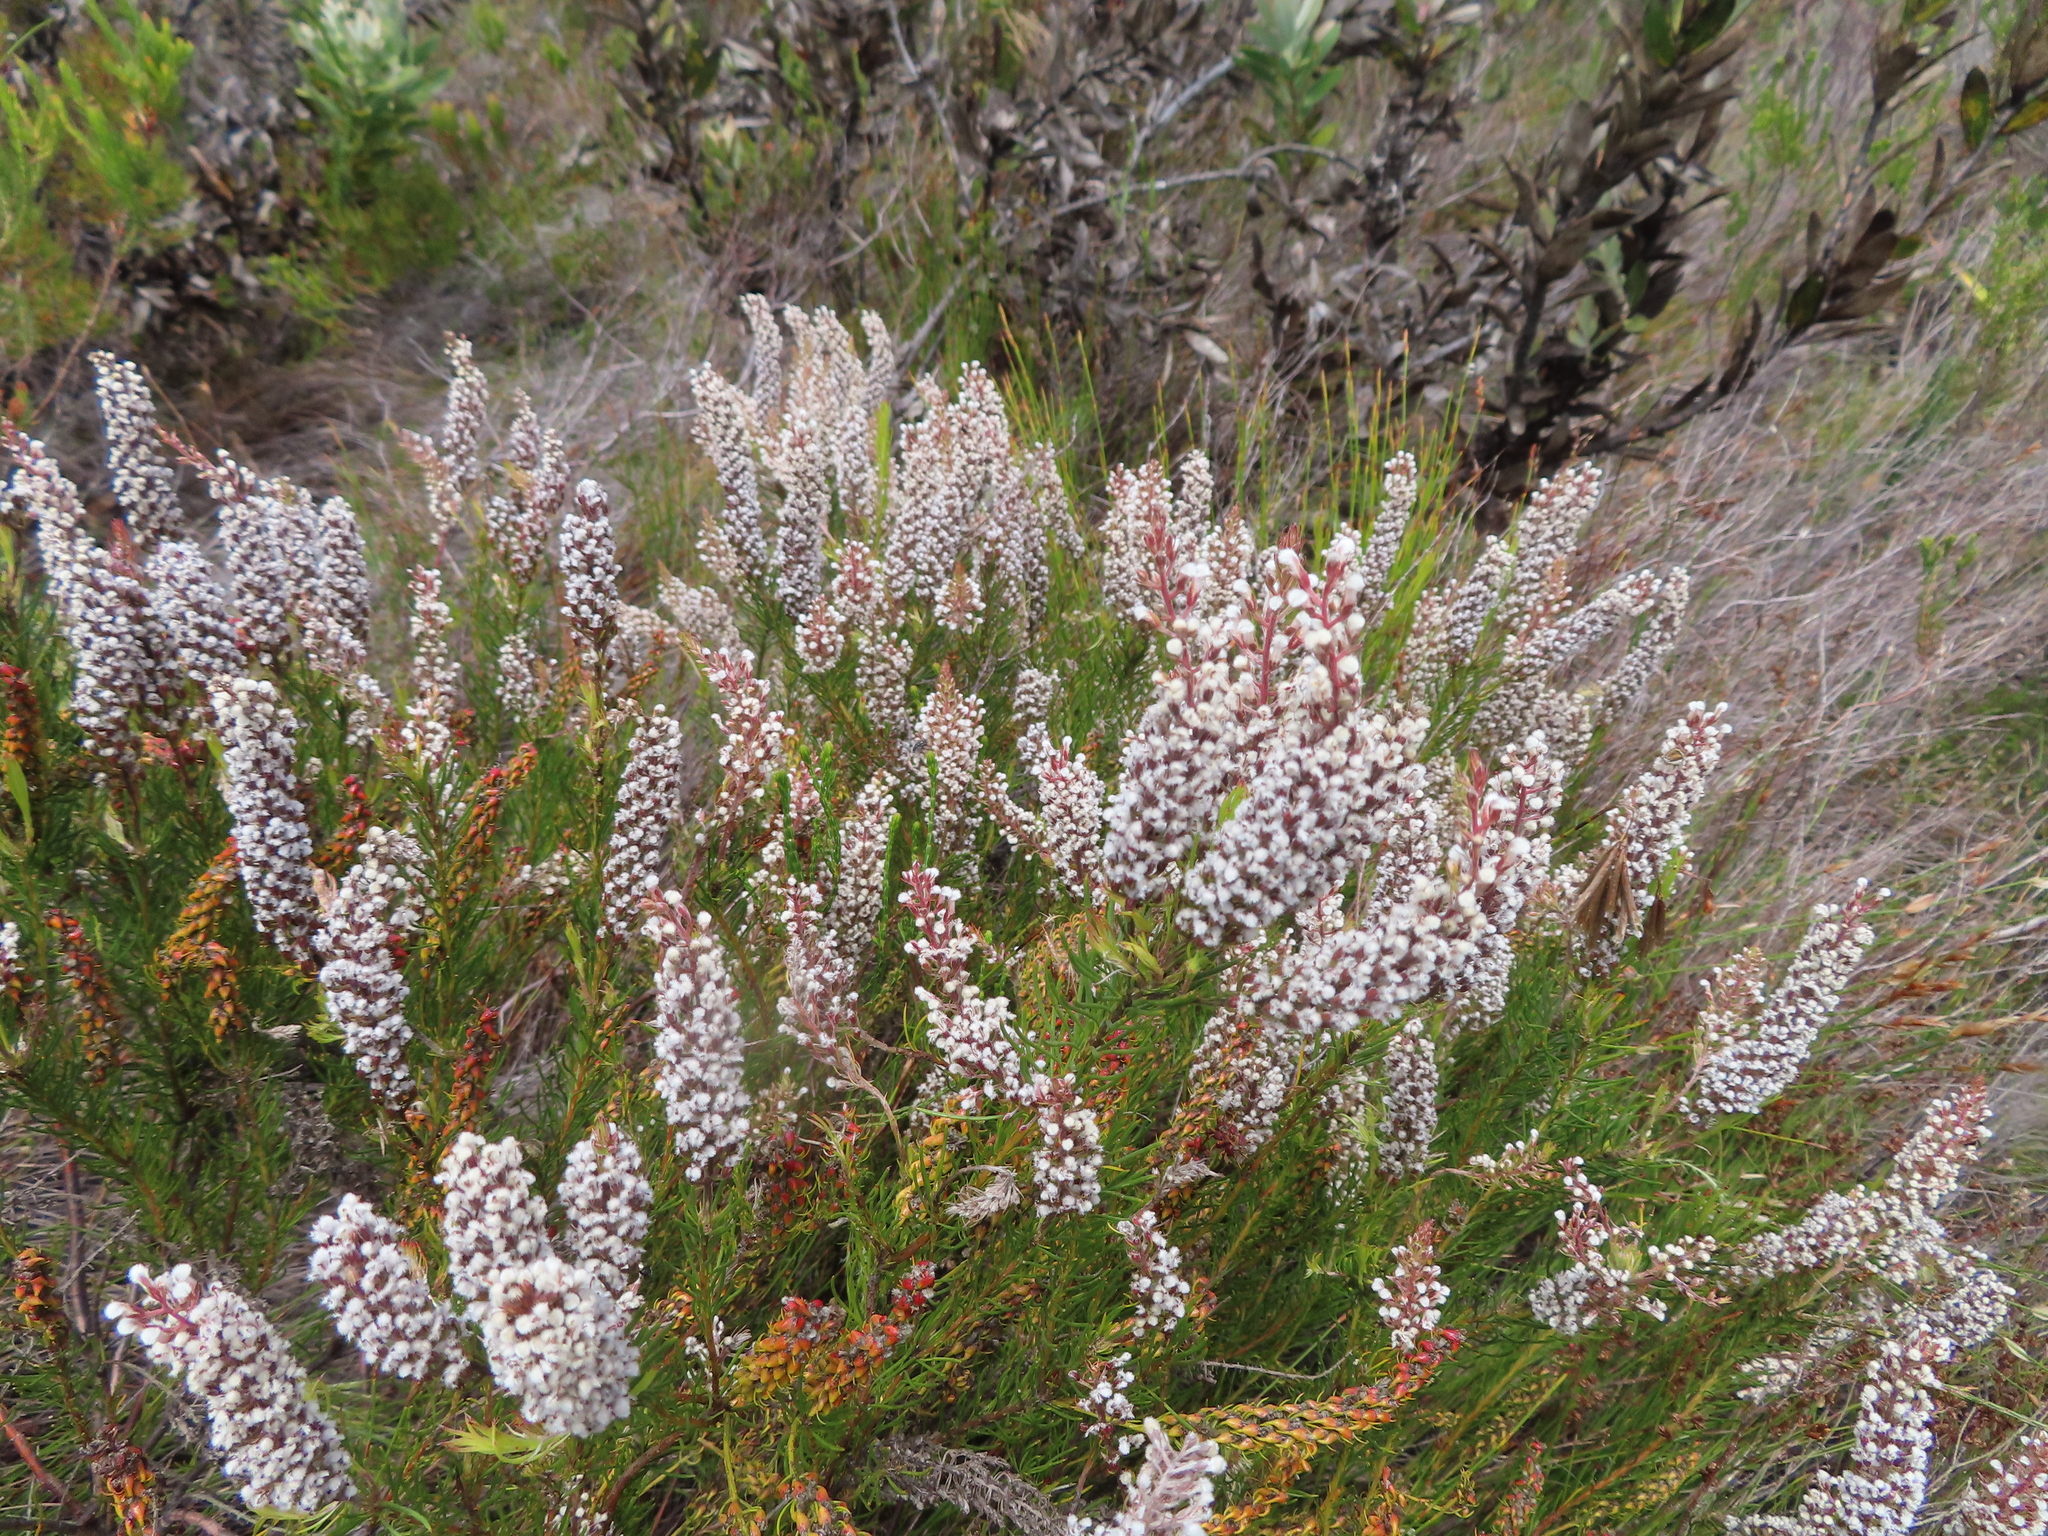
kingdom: Plantae
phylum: Tracheophyta
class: Magnoliopsida
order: Proteales
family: Proteaceae
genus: Spatalla
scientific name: Spatalla curvifolia
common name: White-stalked spoon
